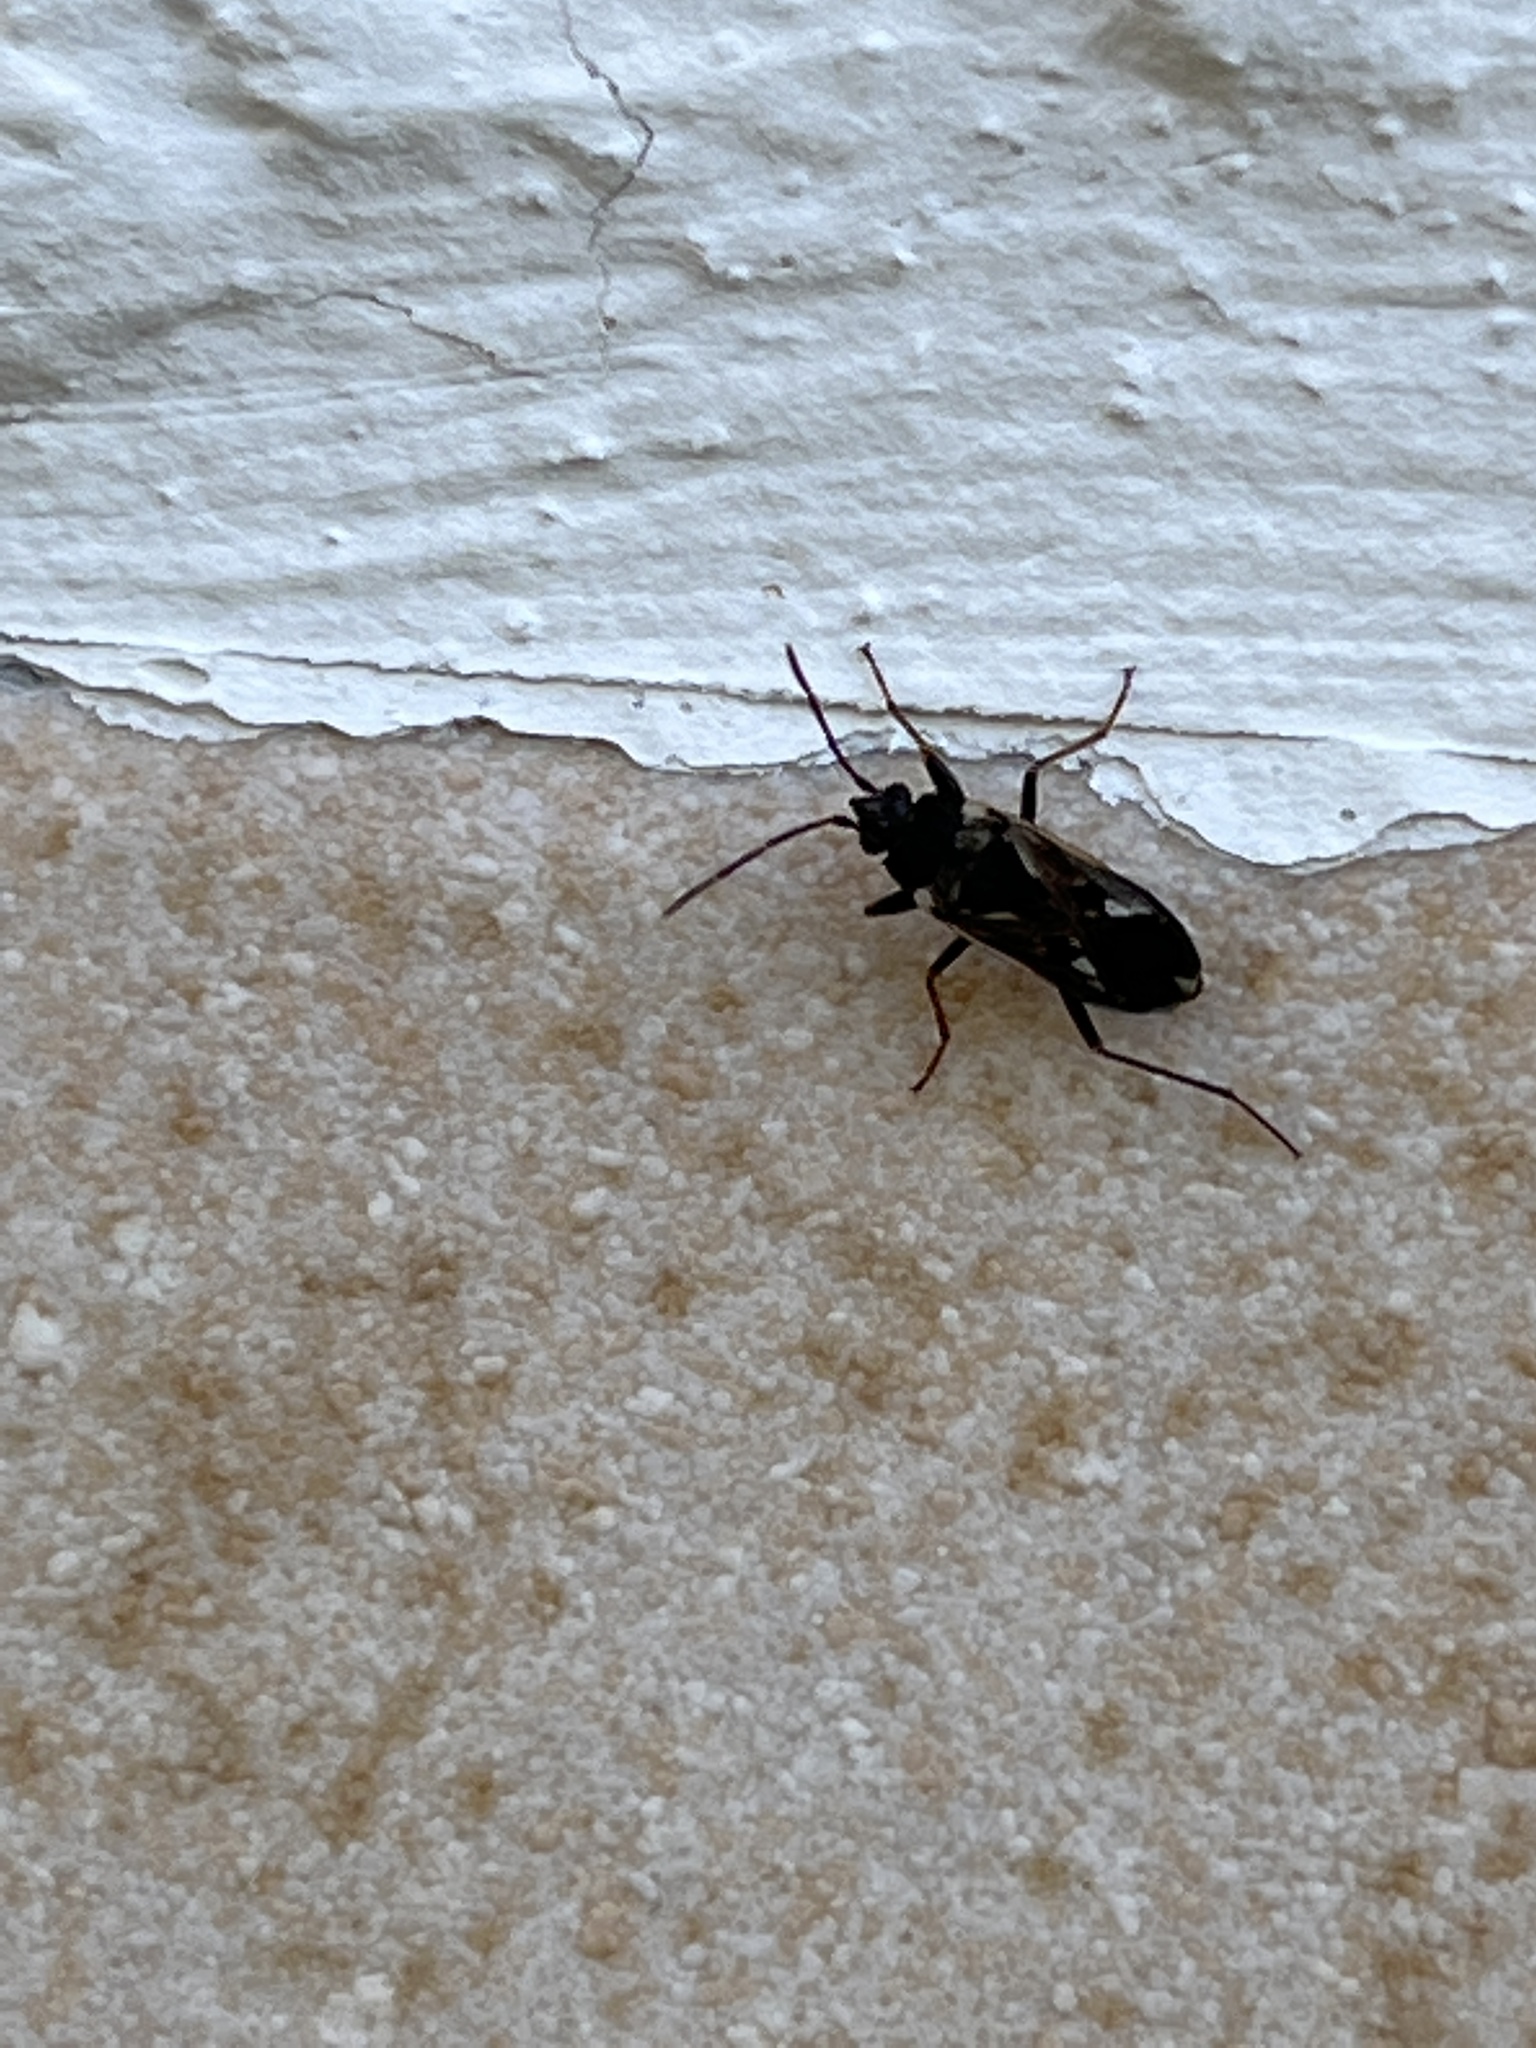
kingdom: Animalia
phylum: Arthropoda
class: Insecta
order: Hemiptera
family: Rhyparochromidae
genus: Rhyparochromus
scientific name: Rhyparochromus vulgaris
